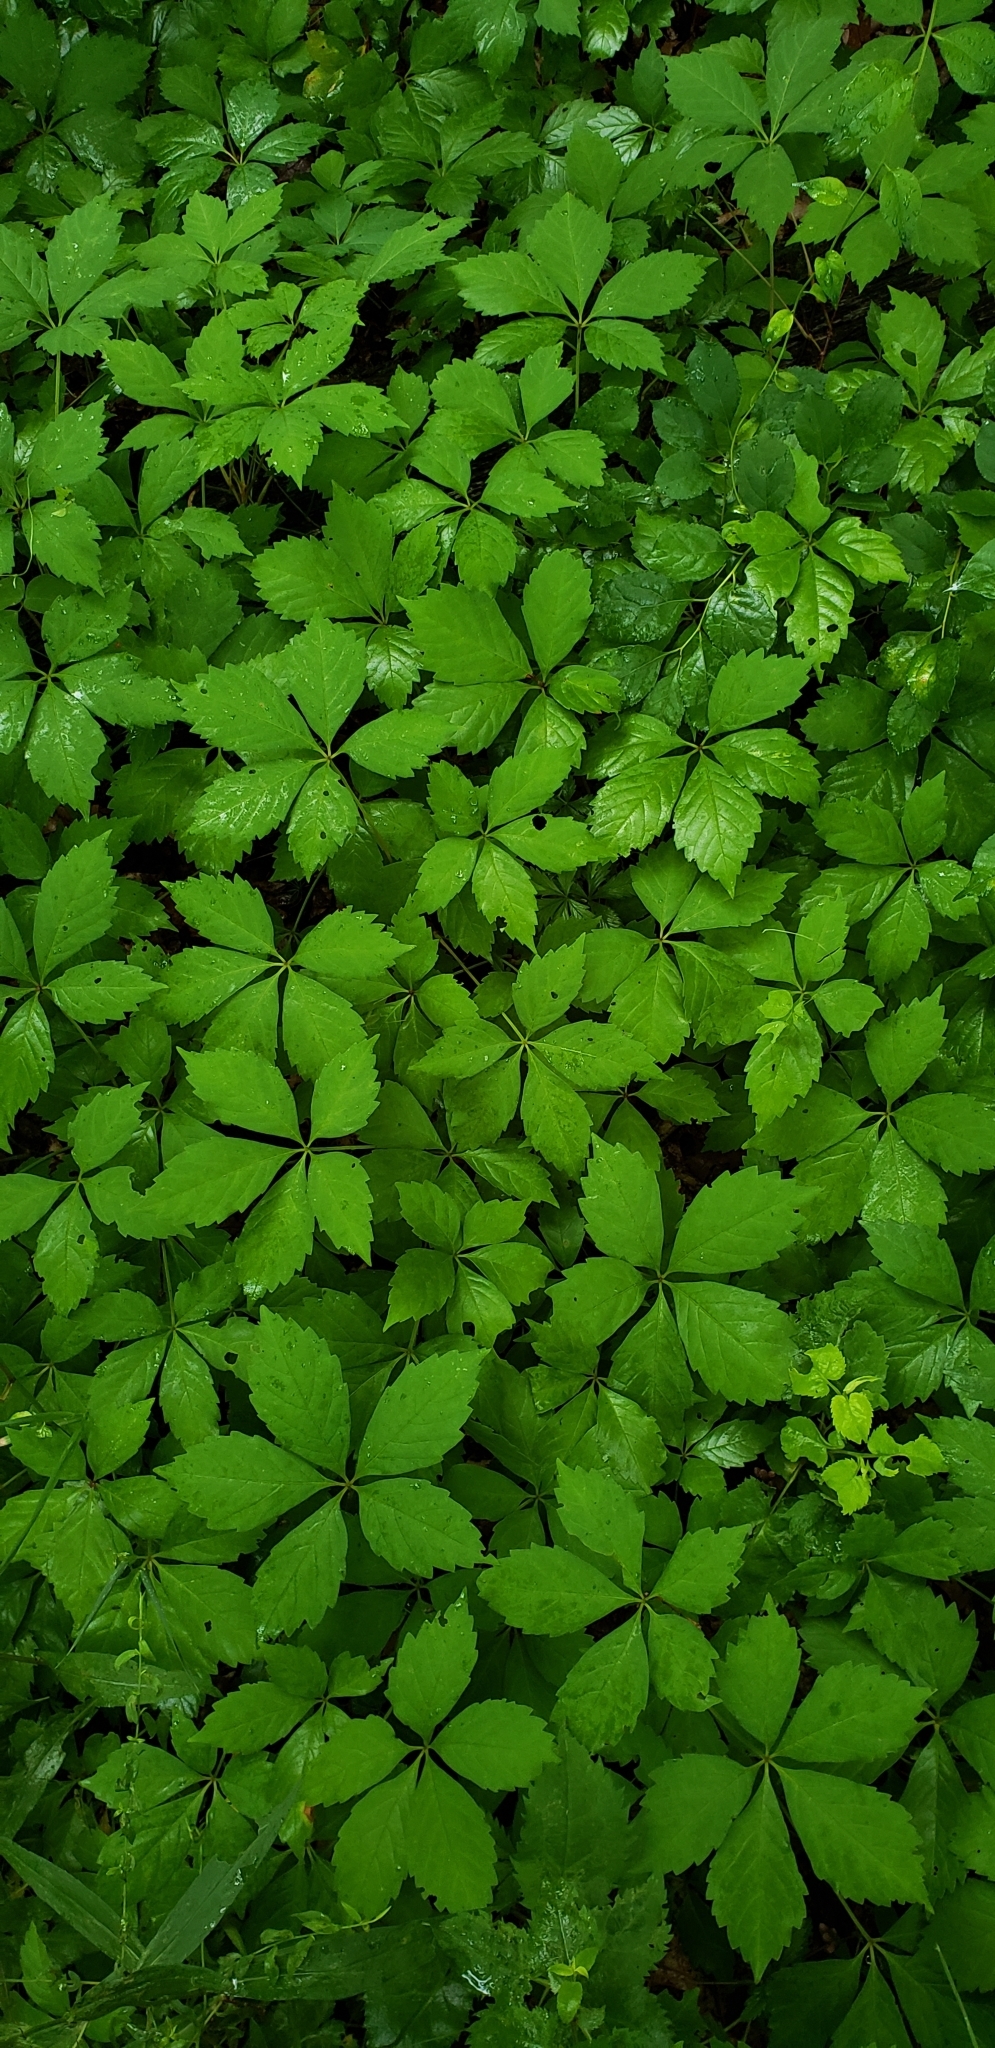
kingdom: Plantae
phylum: Tracheophyta
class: Magnoliopsida
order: Vitales
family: Vitaceae
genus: Parthenocissus
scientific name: Parthenocissus quinquefolia
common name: Virginia-creeper
